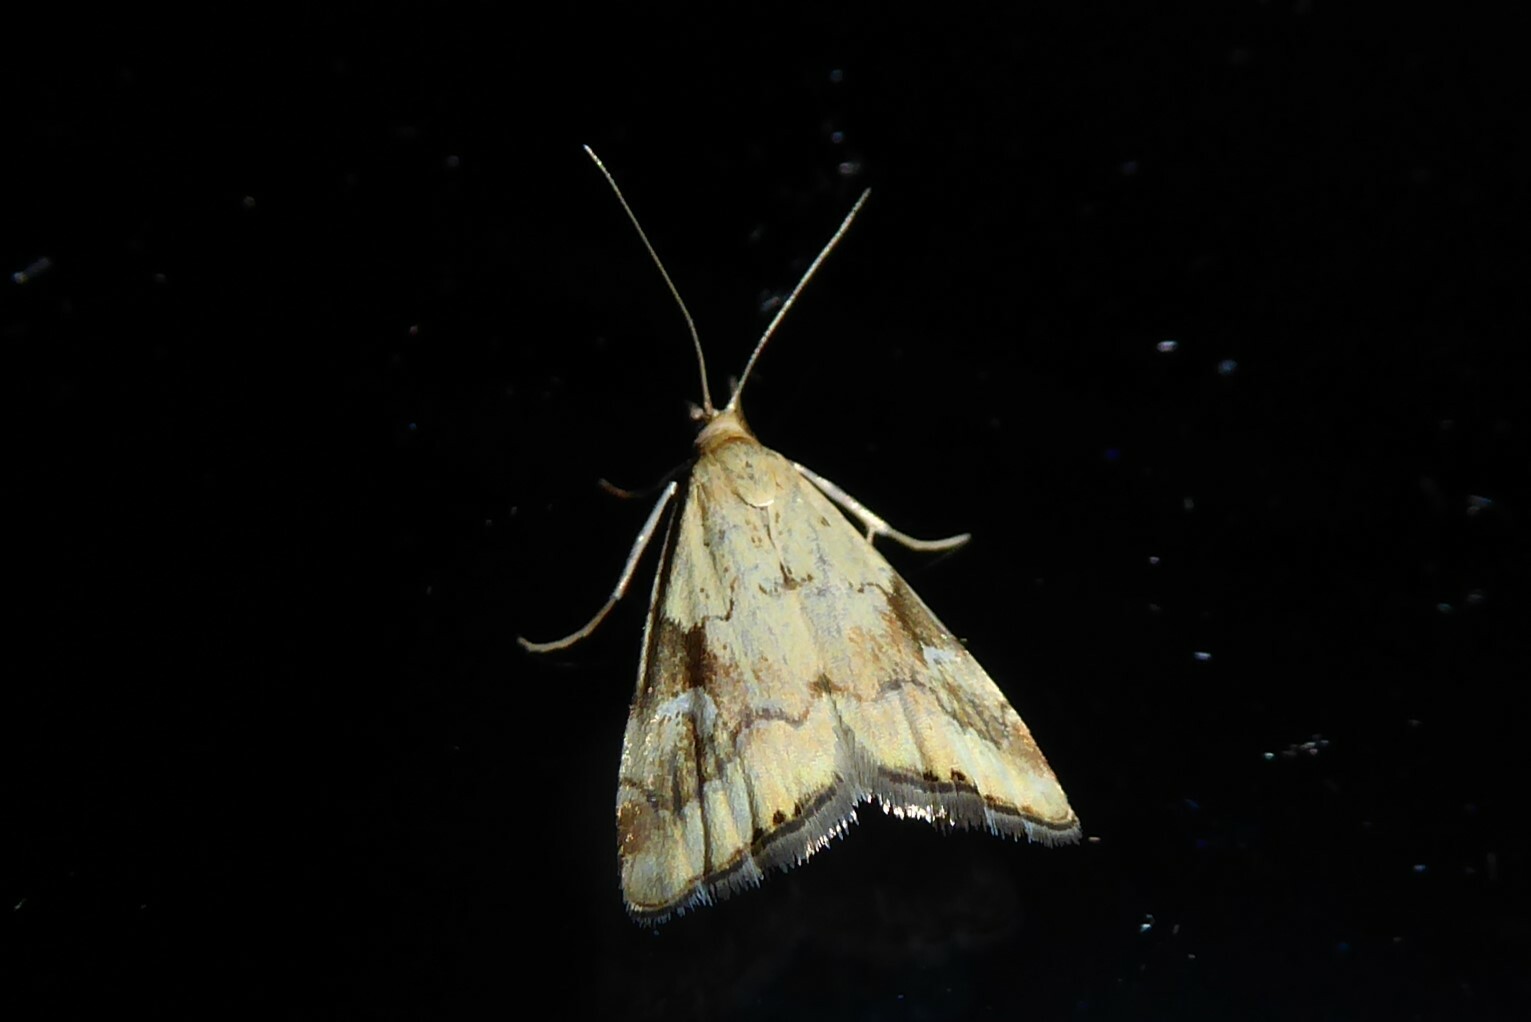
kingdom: Animalia
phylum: Arthropoda
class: Insecta
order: Lepidoptera
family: Crambidae
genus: Glaucocharis
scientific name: Glaucocharis lepidella
